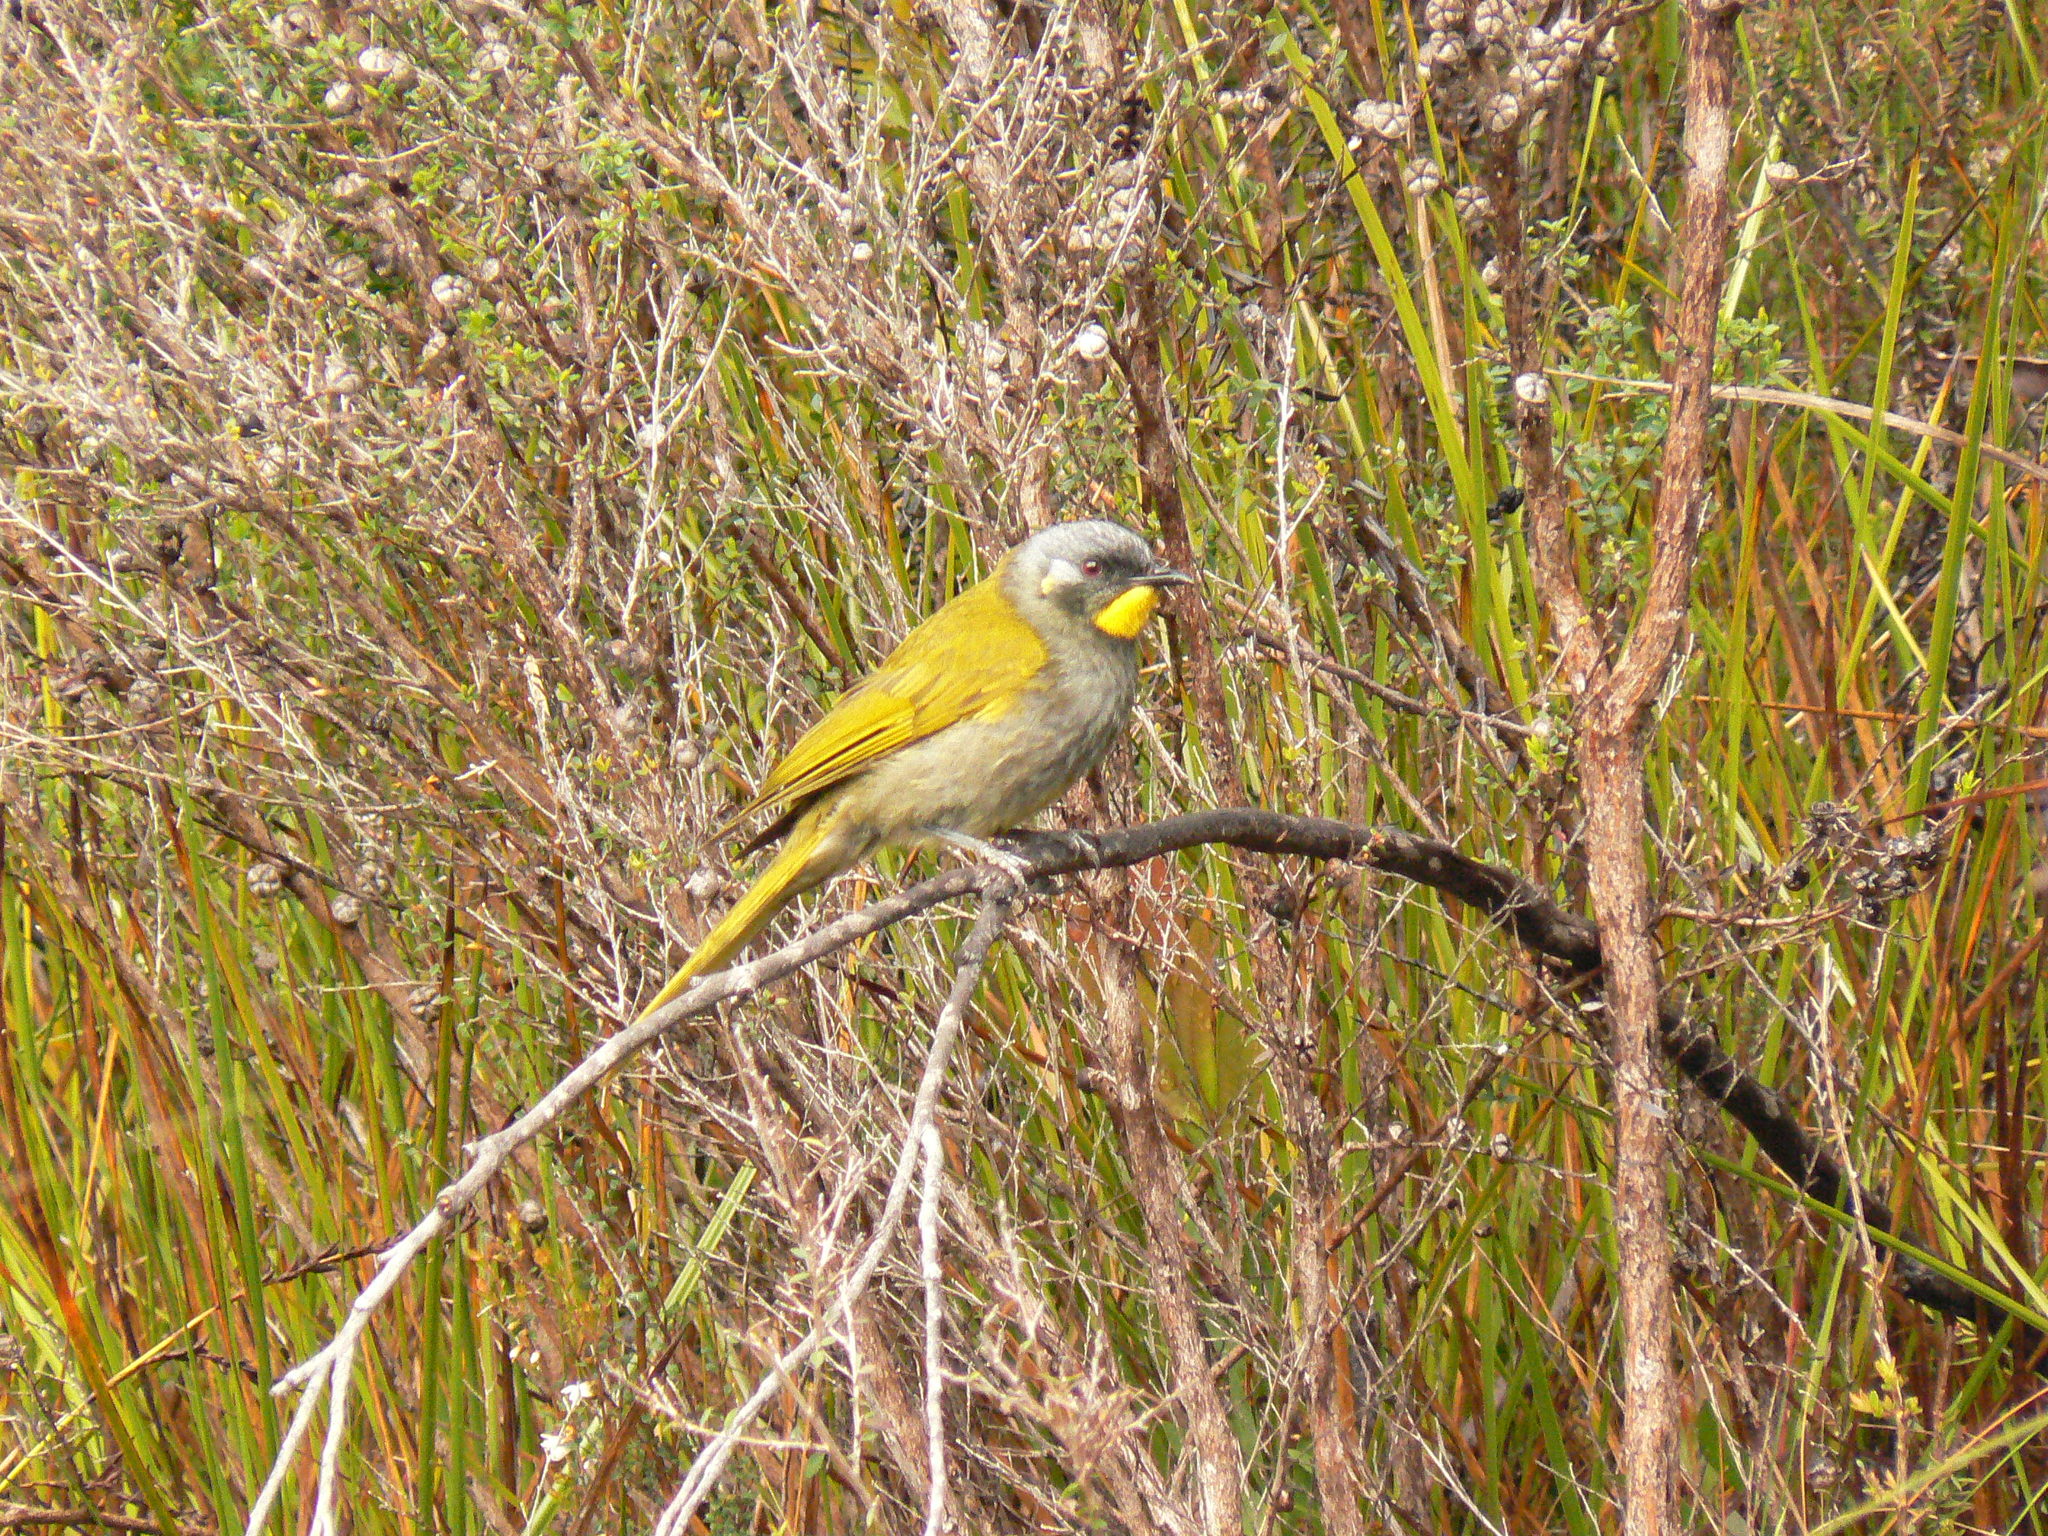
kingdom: Animalia
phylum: Chordata
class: Aves
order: Passeriformes
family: Meliphagidae
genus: Nesoptilotis
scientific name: Nesoptilotis flavicollis
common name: Yellow-throated honeyeater
